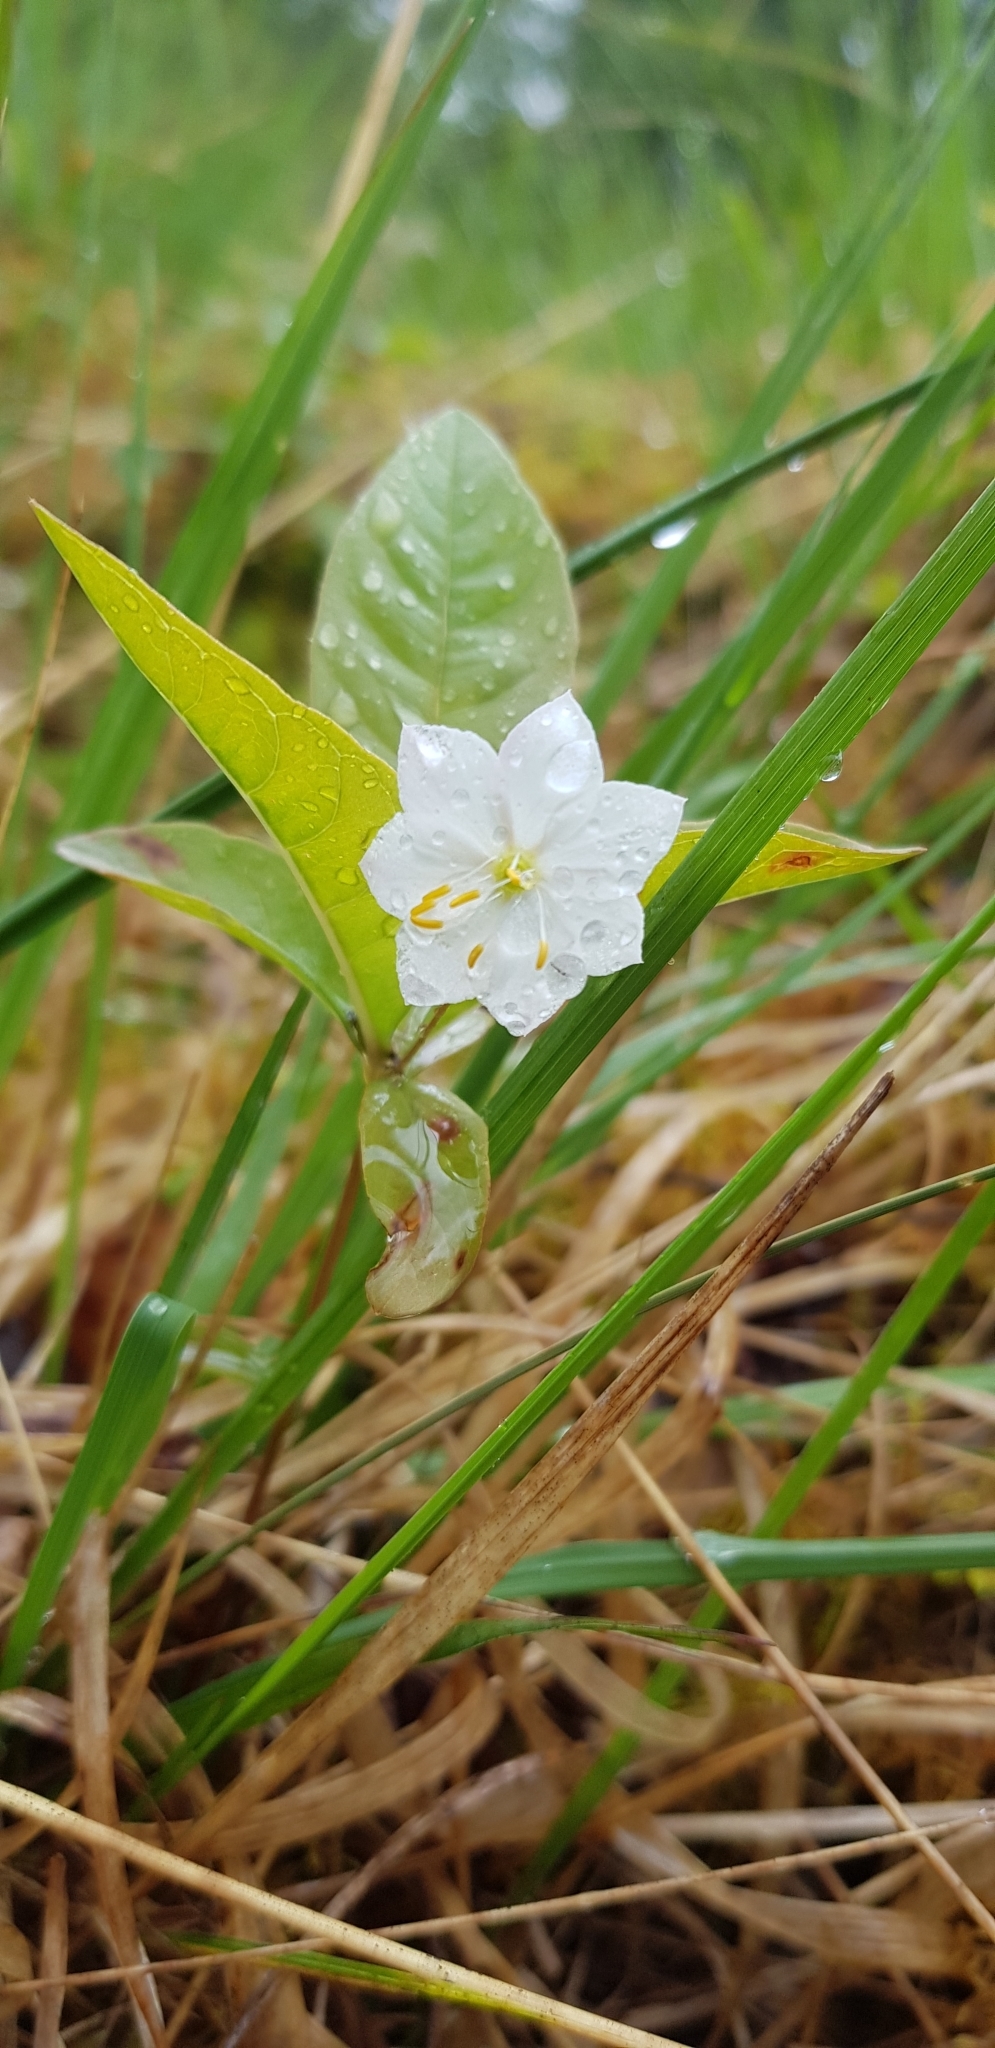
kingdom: Plantae
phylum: Tracheophyta
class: Magnoliopsida
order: Ericales
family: Primulaceae
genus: Lysimachia
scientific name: Lysimachia europaea
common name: Arctic starflower
